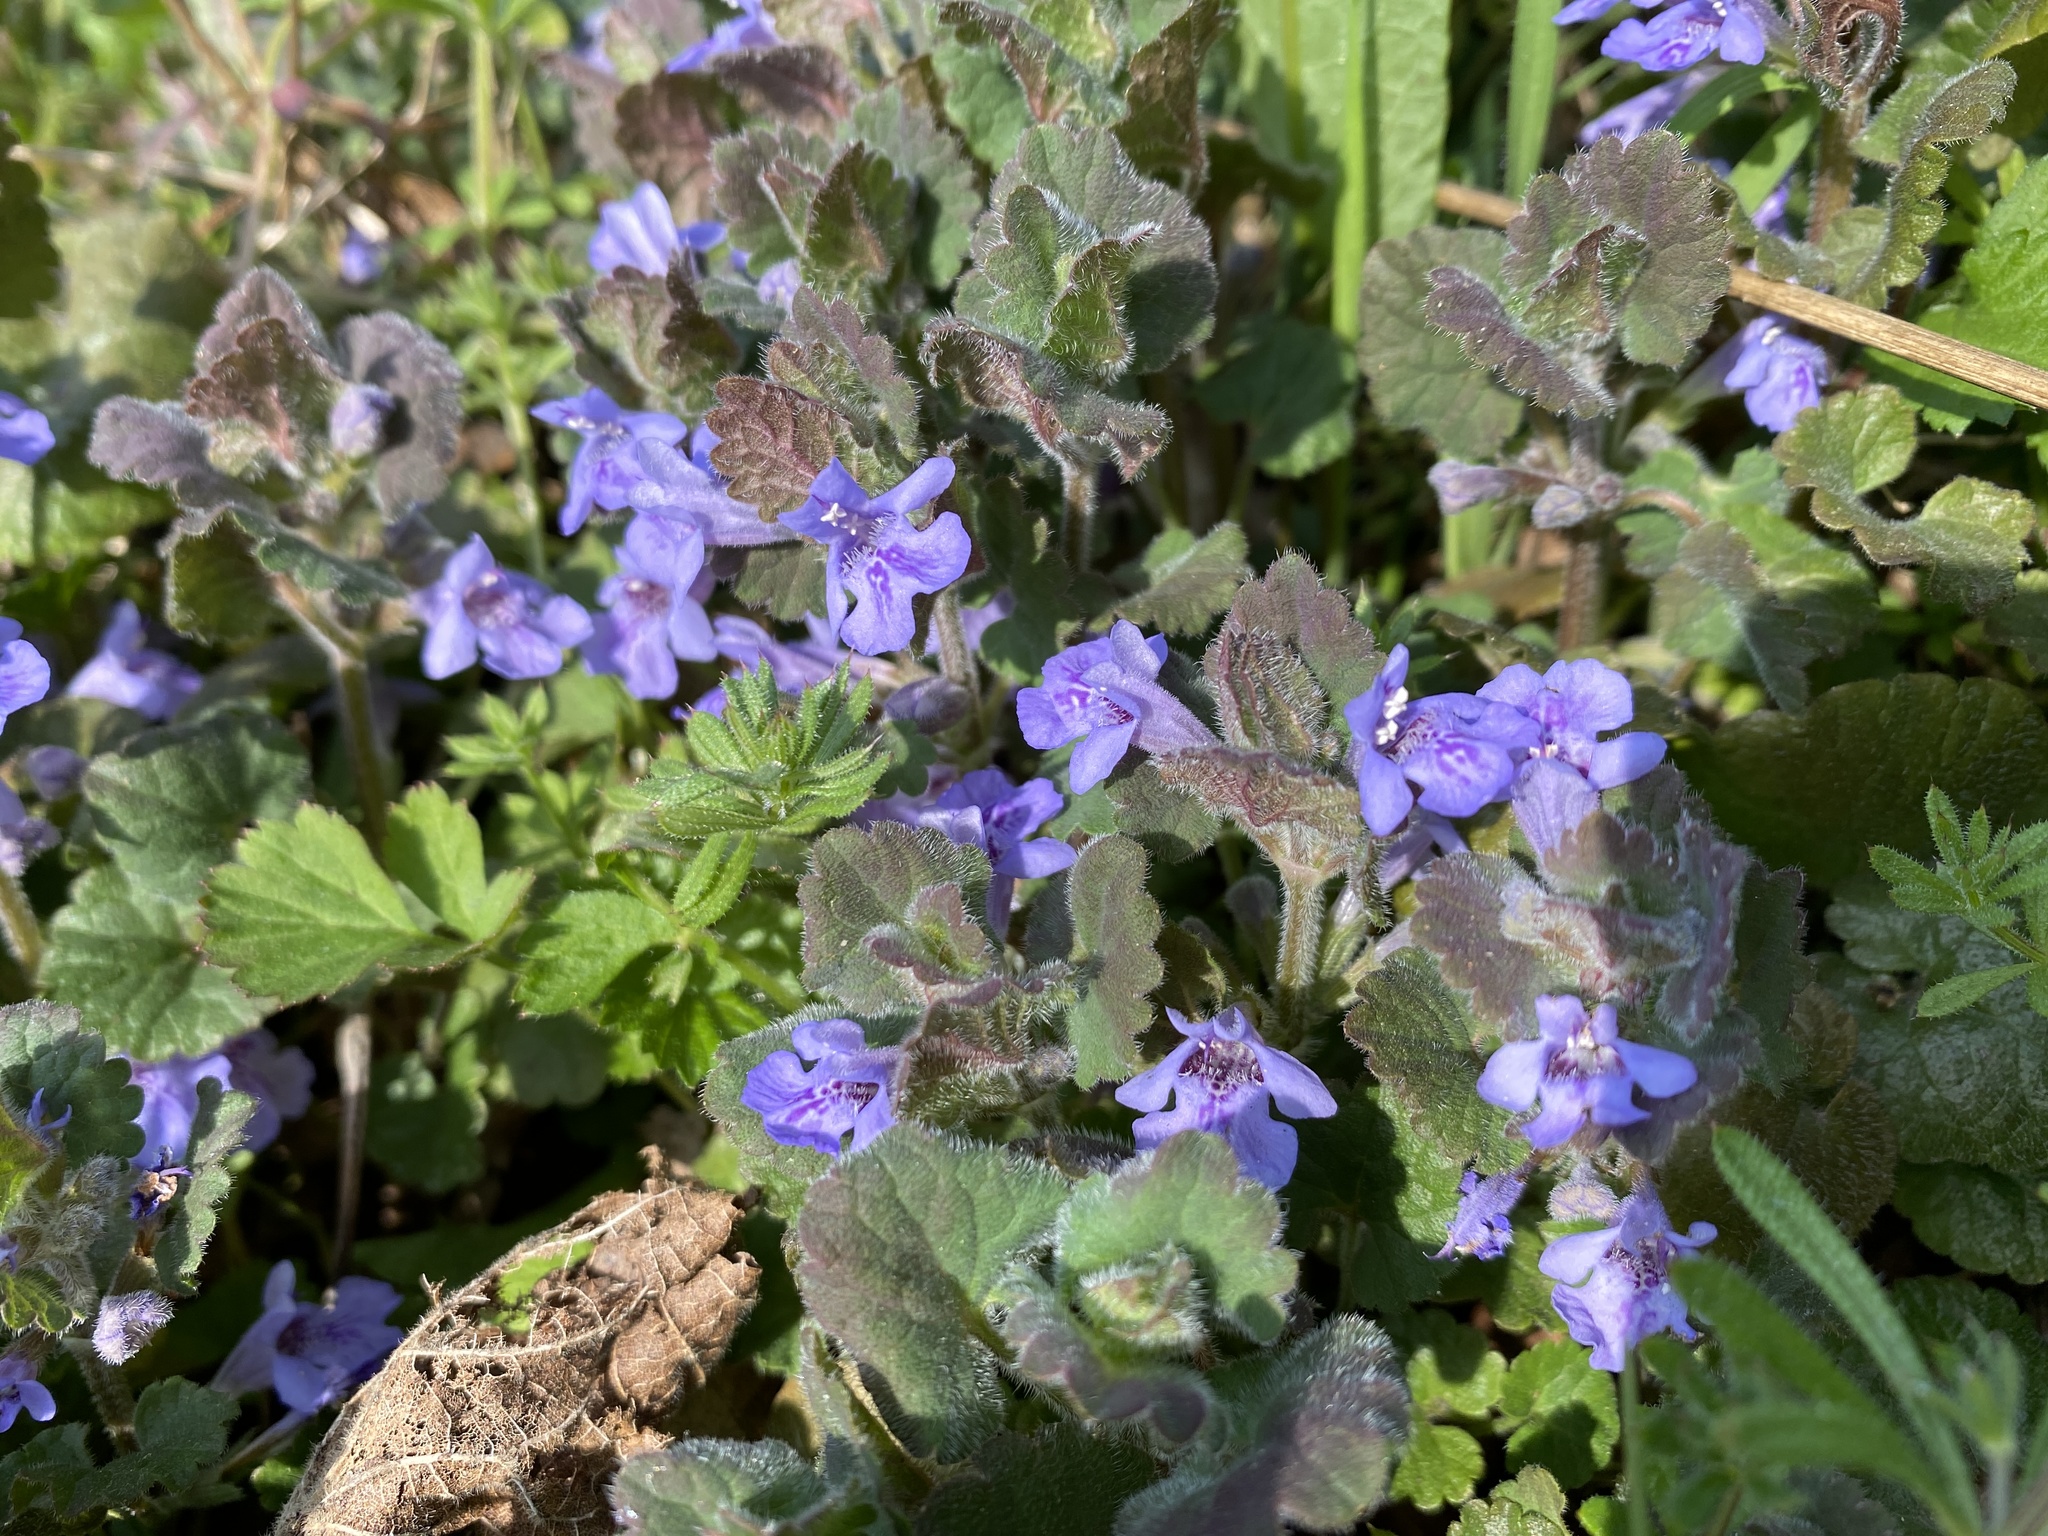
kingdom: Plantae
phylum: Tracheophyta
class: Magnoliopsida
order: Lamiales
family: Lamiaceae
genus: Glechoma
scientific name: Glechoma hederacea
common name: Ground ivy
